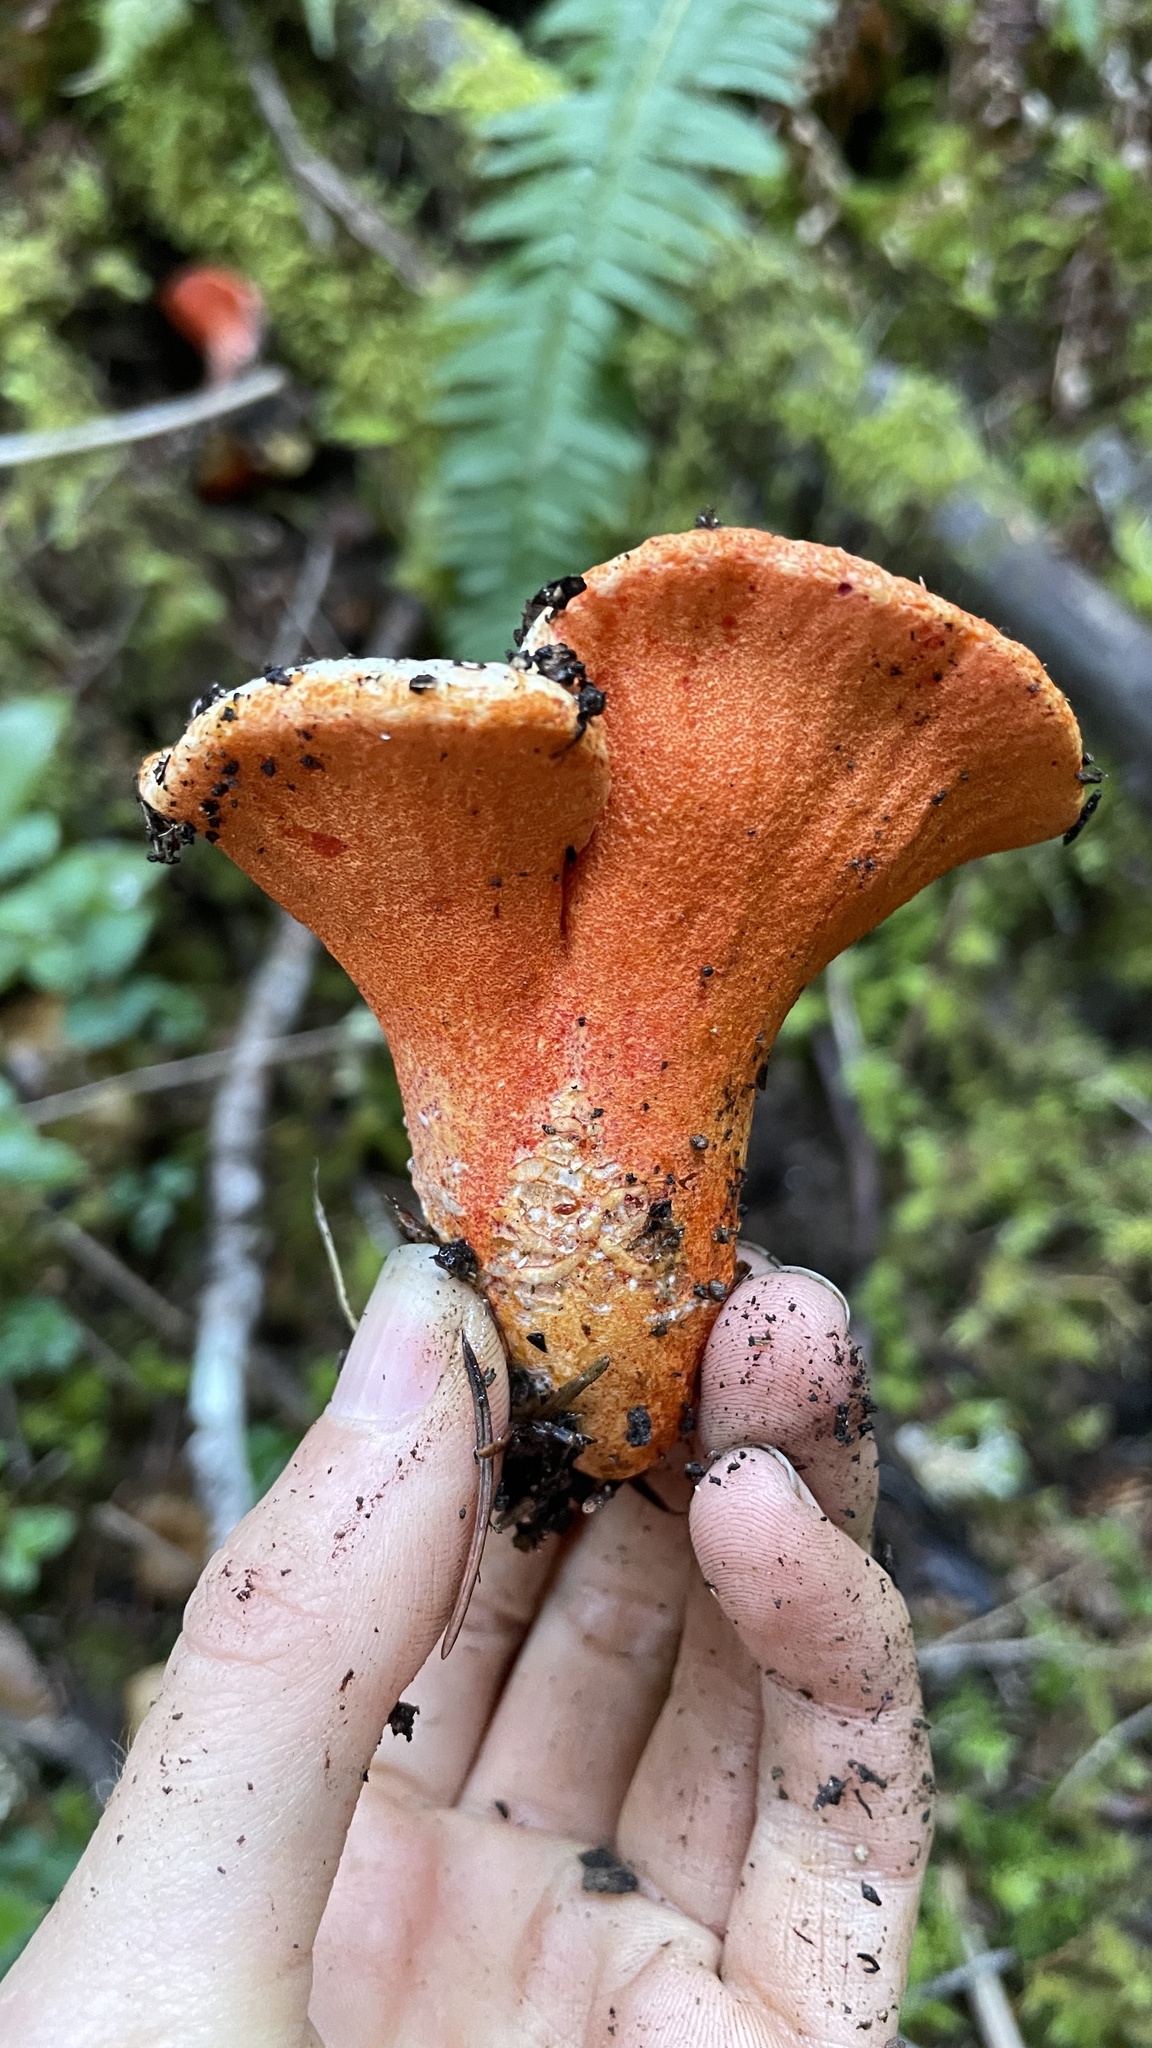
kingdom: Fungi
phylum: Ascomycota
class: Sordariomycetes
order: Hypocreales
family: Hypocreaceae
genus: Hypomyces
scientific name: Hypomyces lactifluorum
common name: Lobster mushroom
